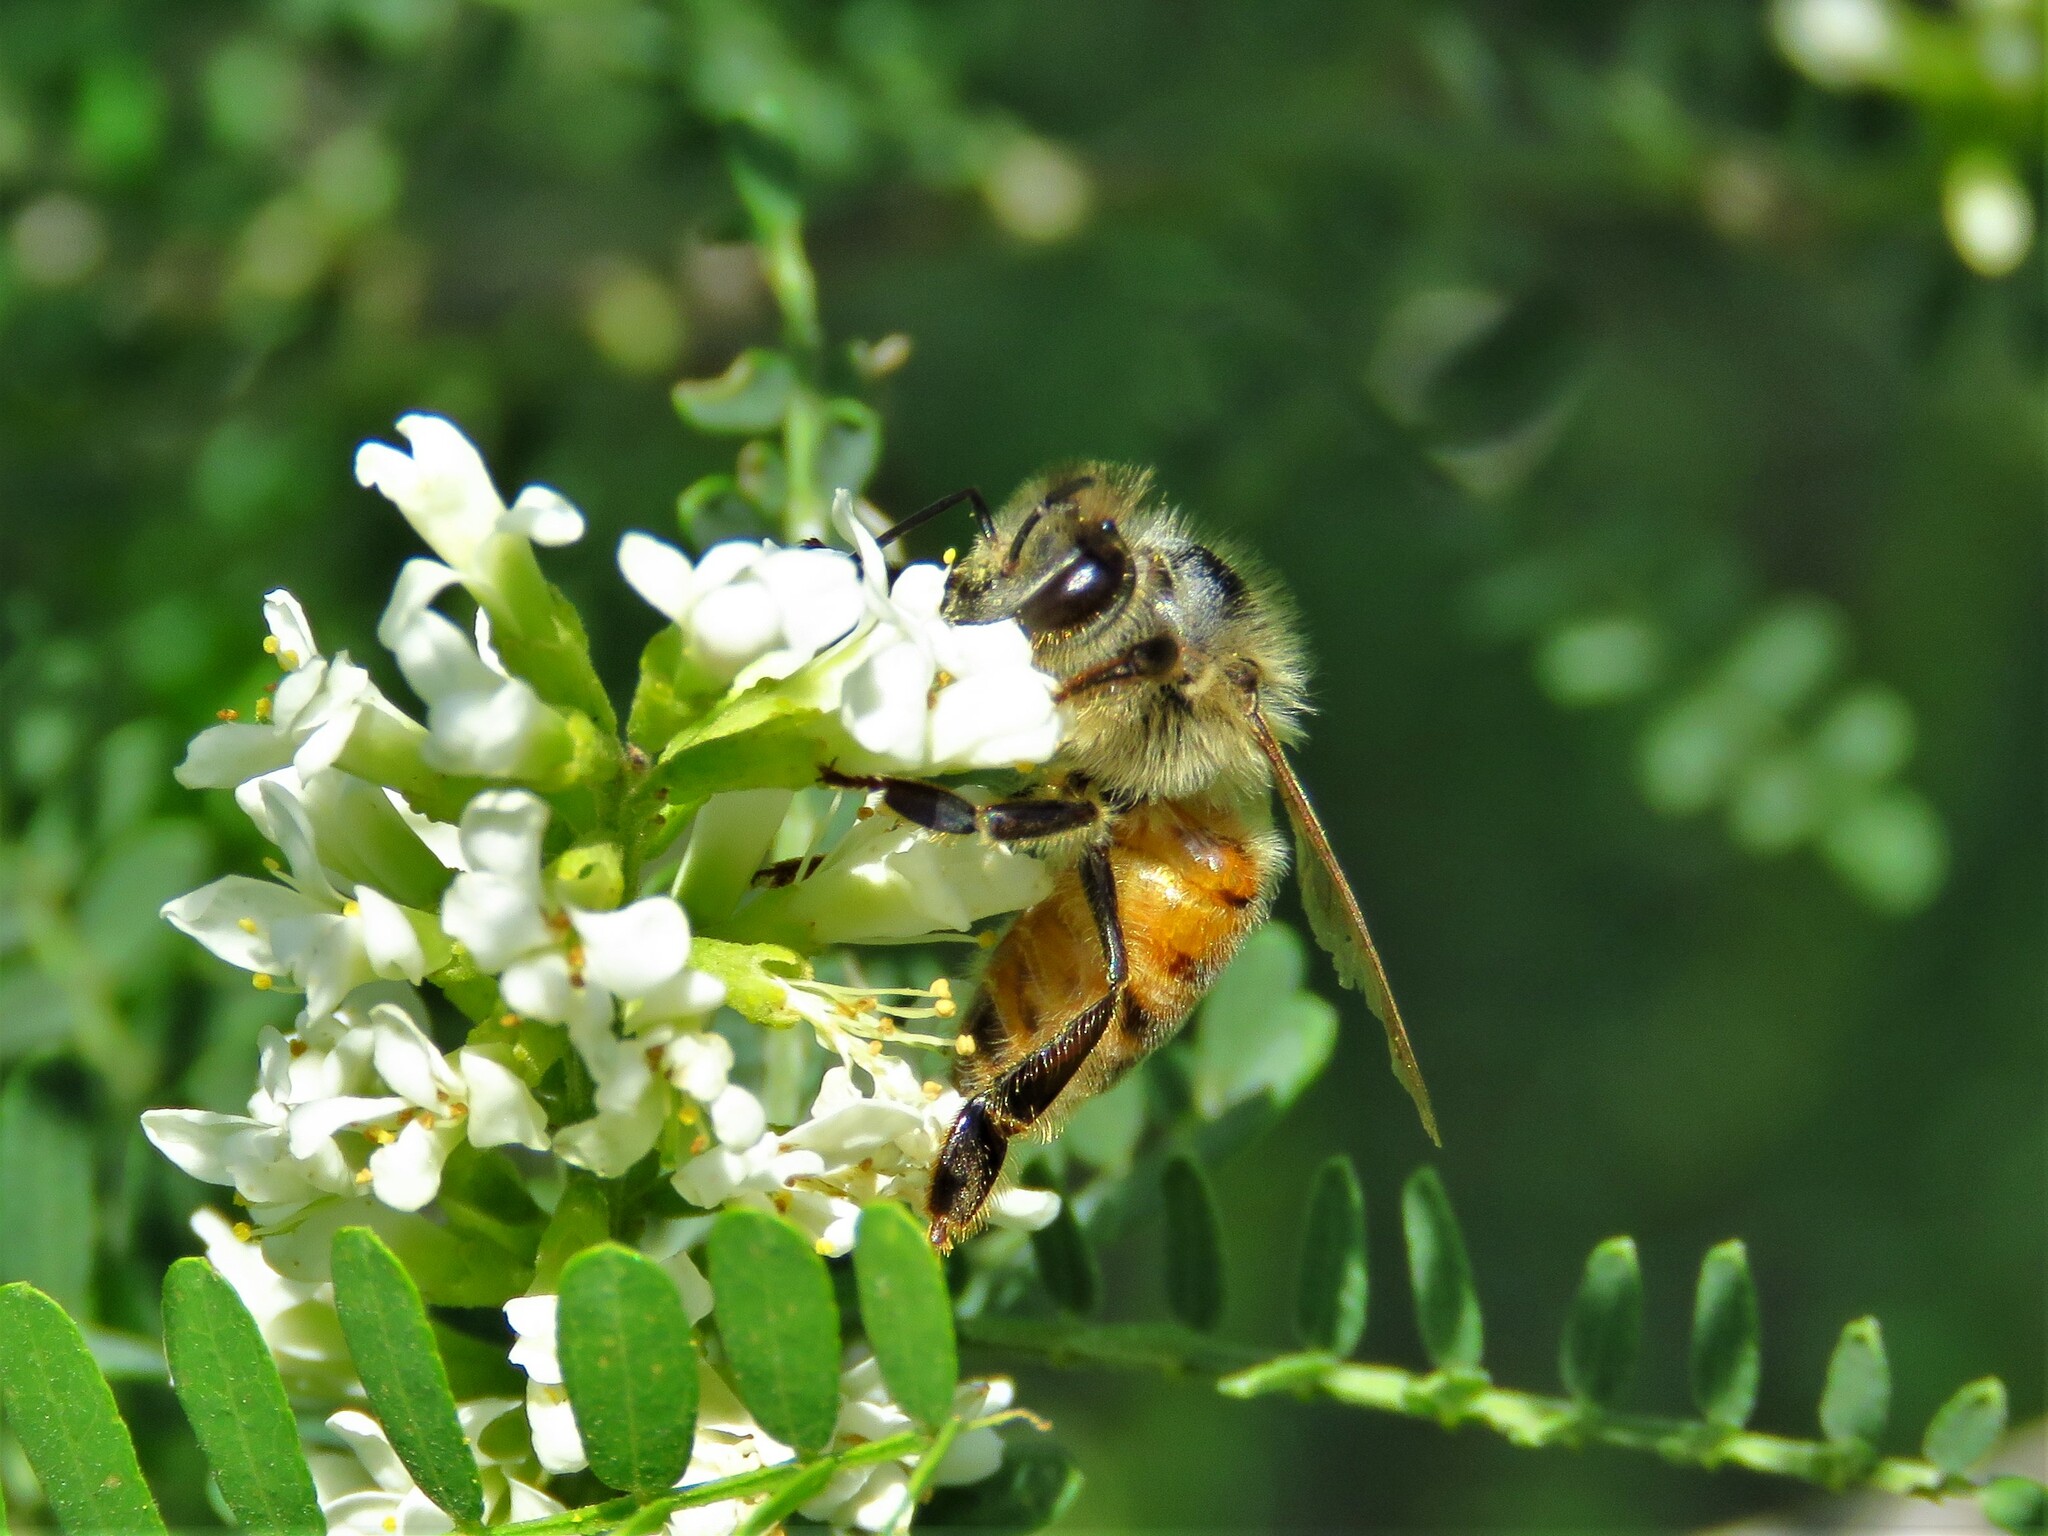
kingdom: Animalia
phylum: Arthropoda
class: Insecta
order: Hymenoptera
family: Apidae
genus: Apis
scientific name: Apis mellifera
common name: Honey bee
